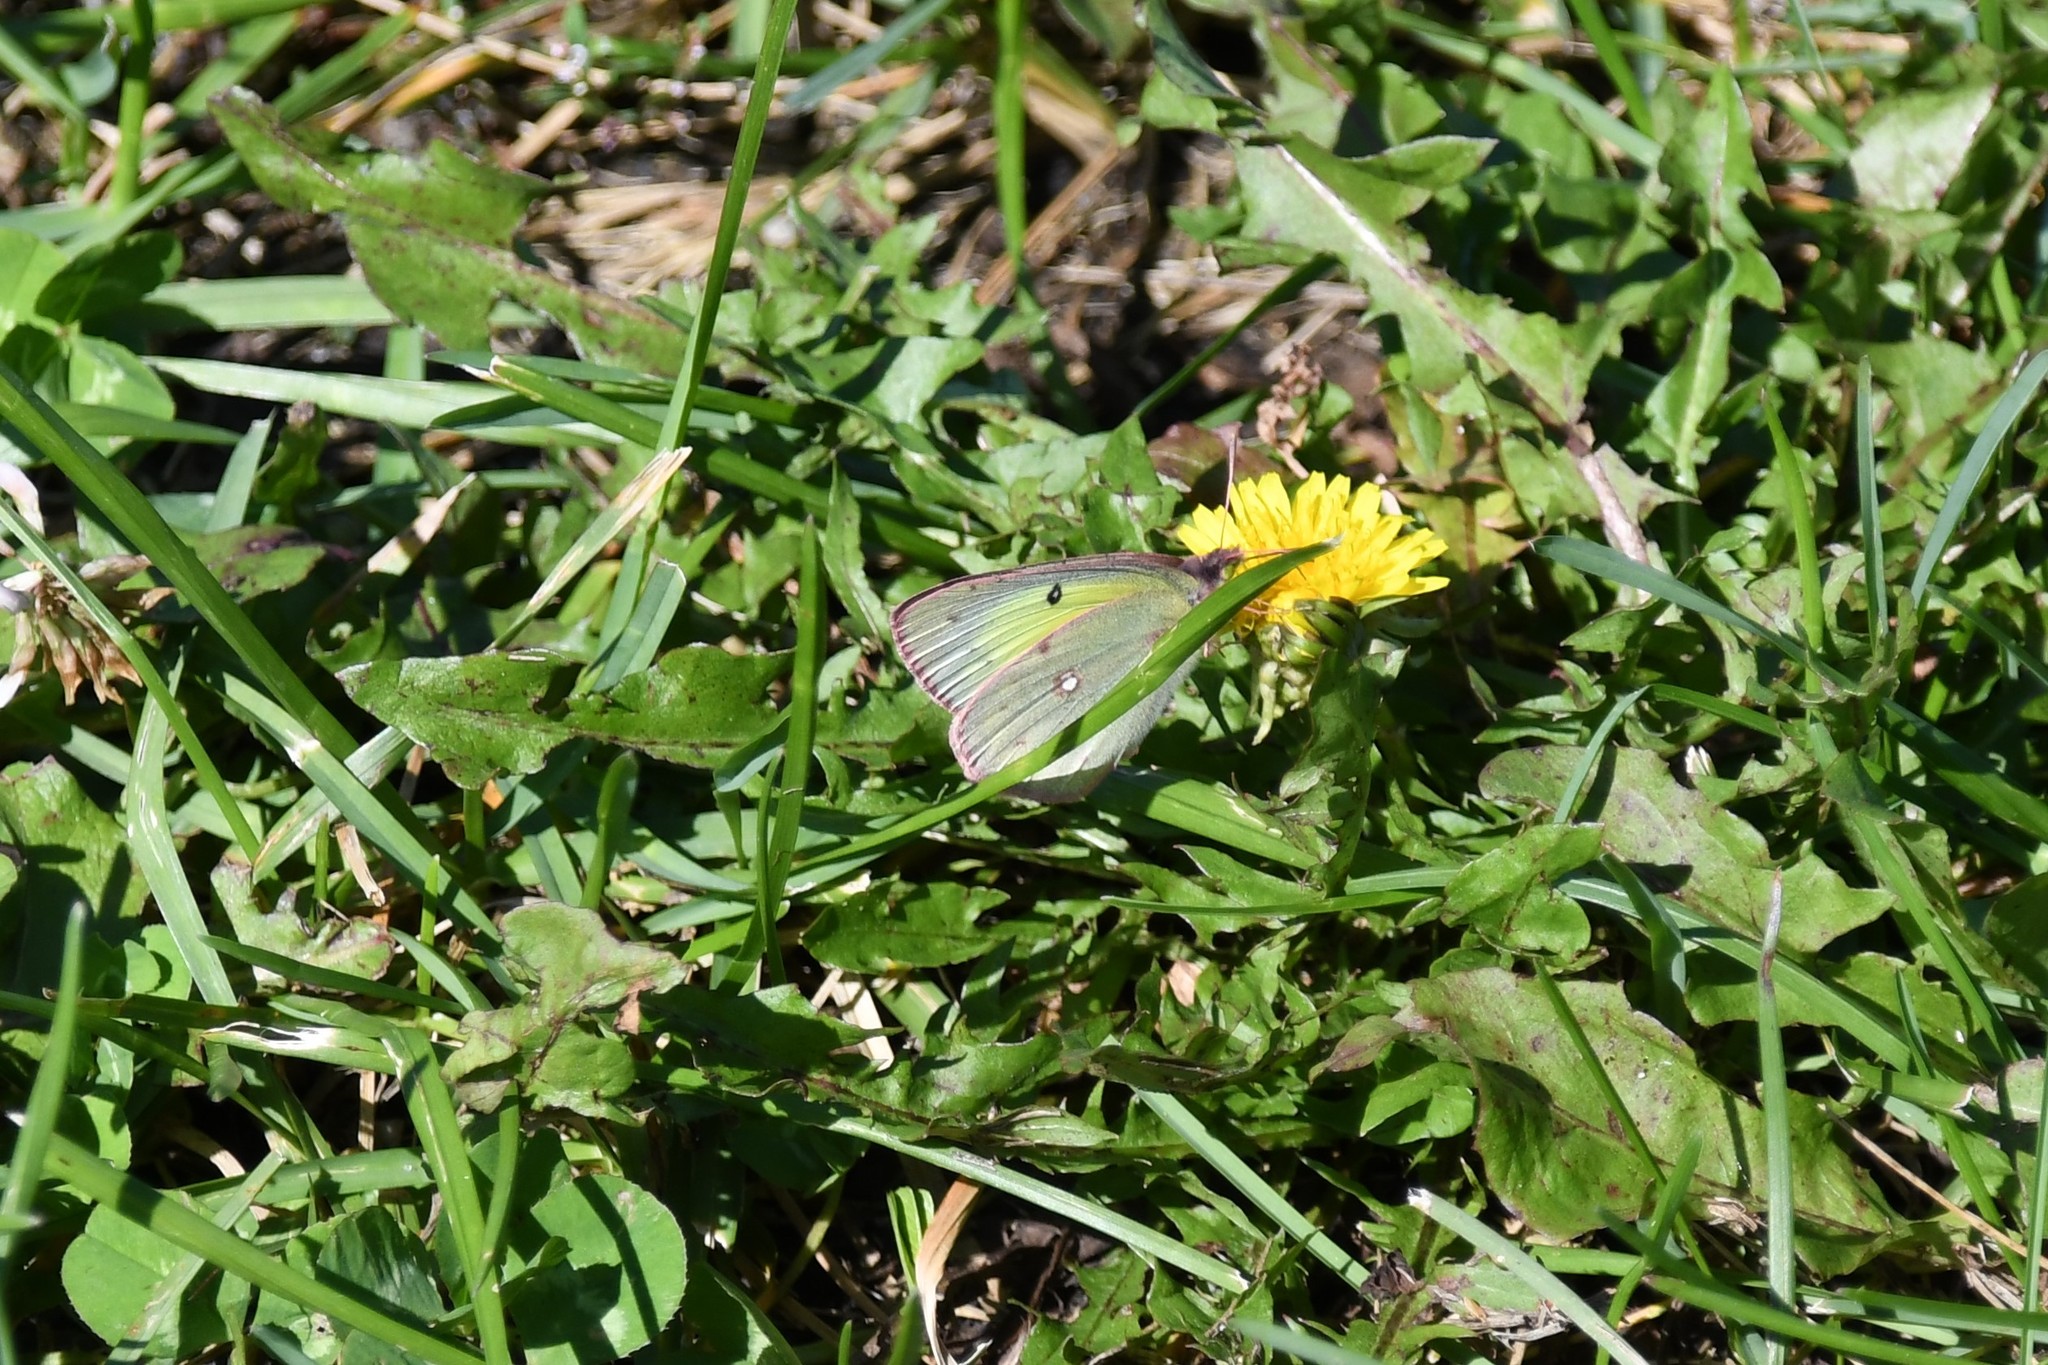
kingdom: Animalia
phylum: Arthropoda
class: Insecta
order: Lepidoptera
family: Pieridae
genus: Colias
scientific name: Colias philodice
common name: Clouded sulphur
